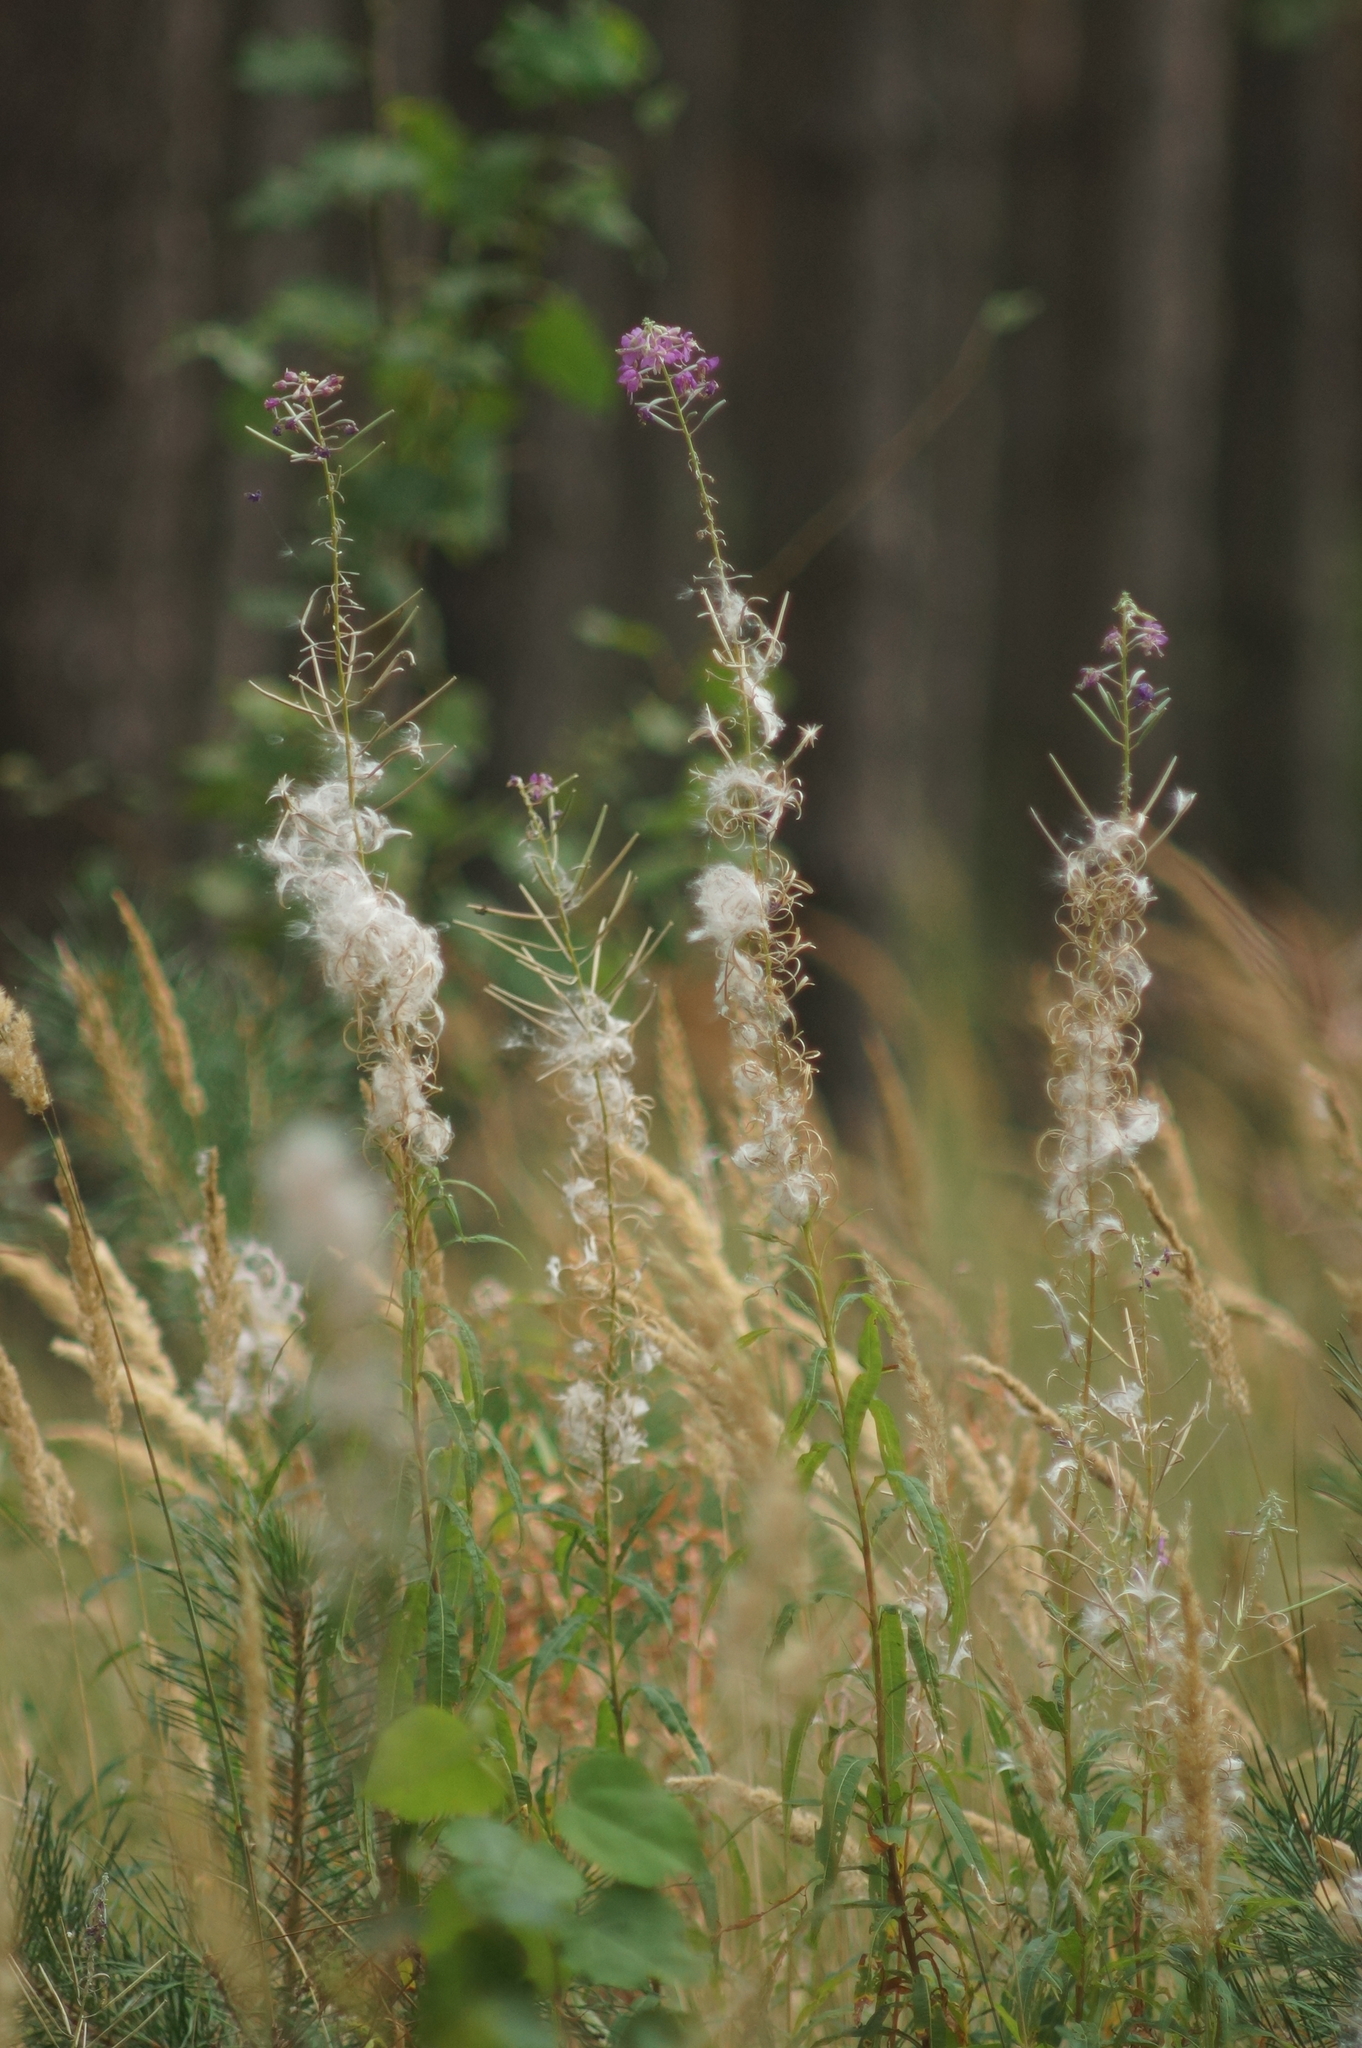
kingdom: Plantae
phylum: Tracheophyta
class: Magnoliopsida
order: Myrtales
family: Onagraceae
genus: Chamaenerion
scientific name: Chamaenerion angustifolium
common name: Fireweed
